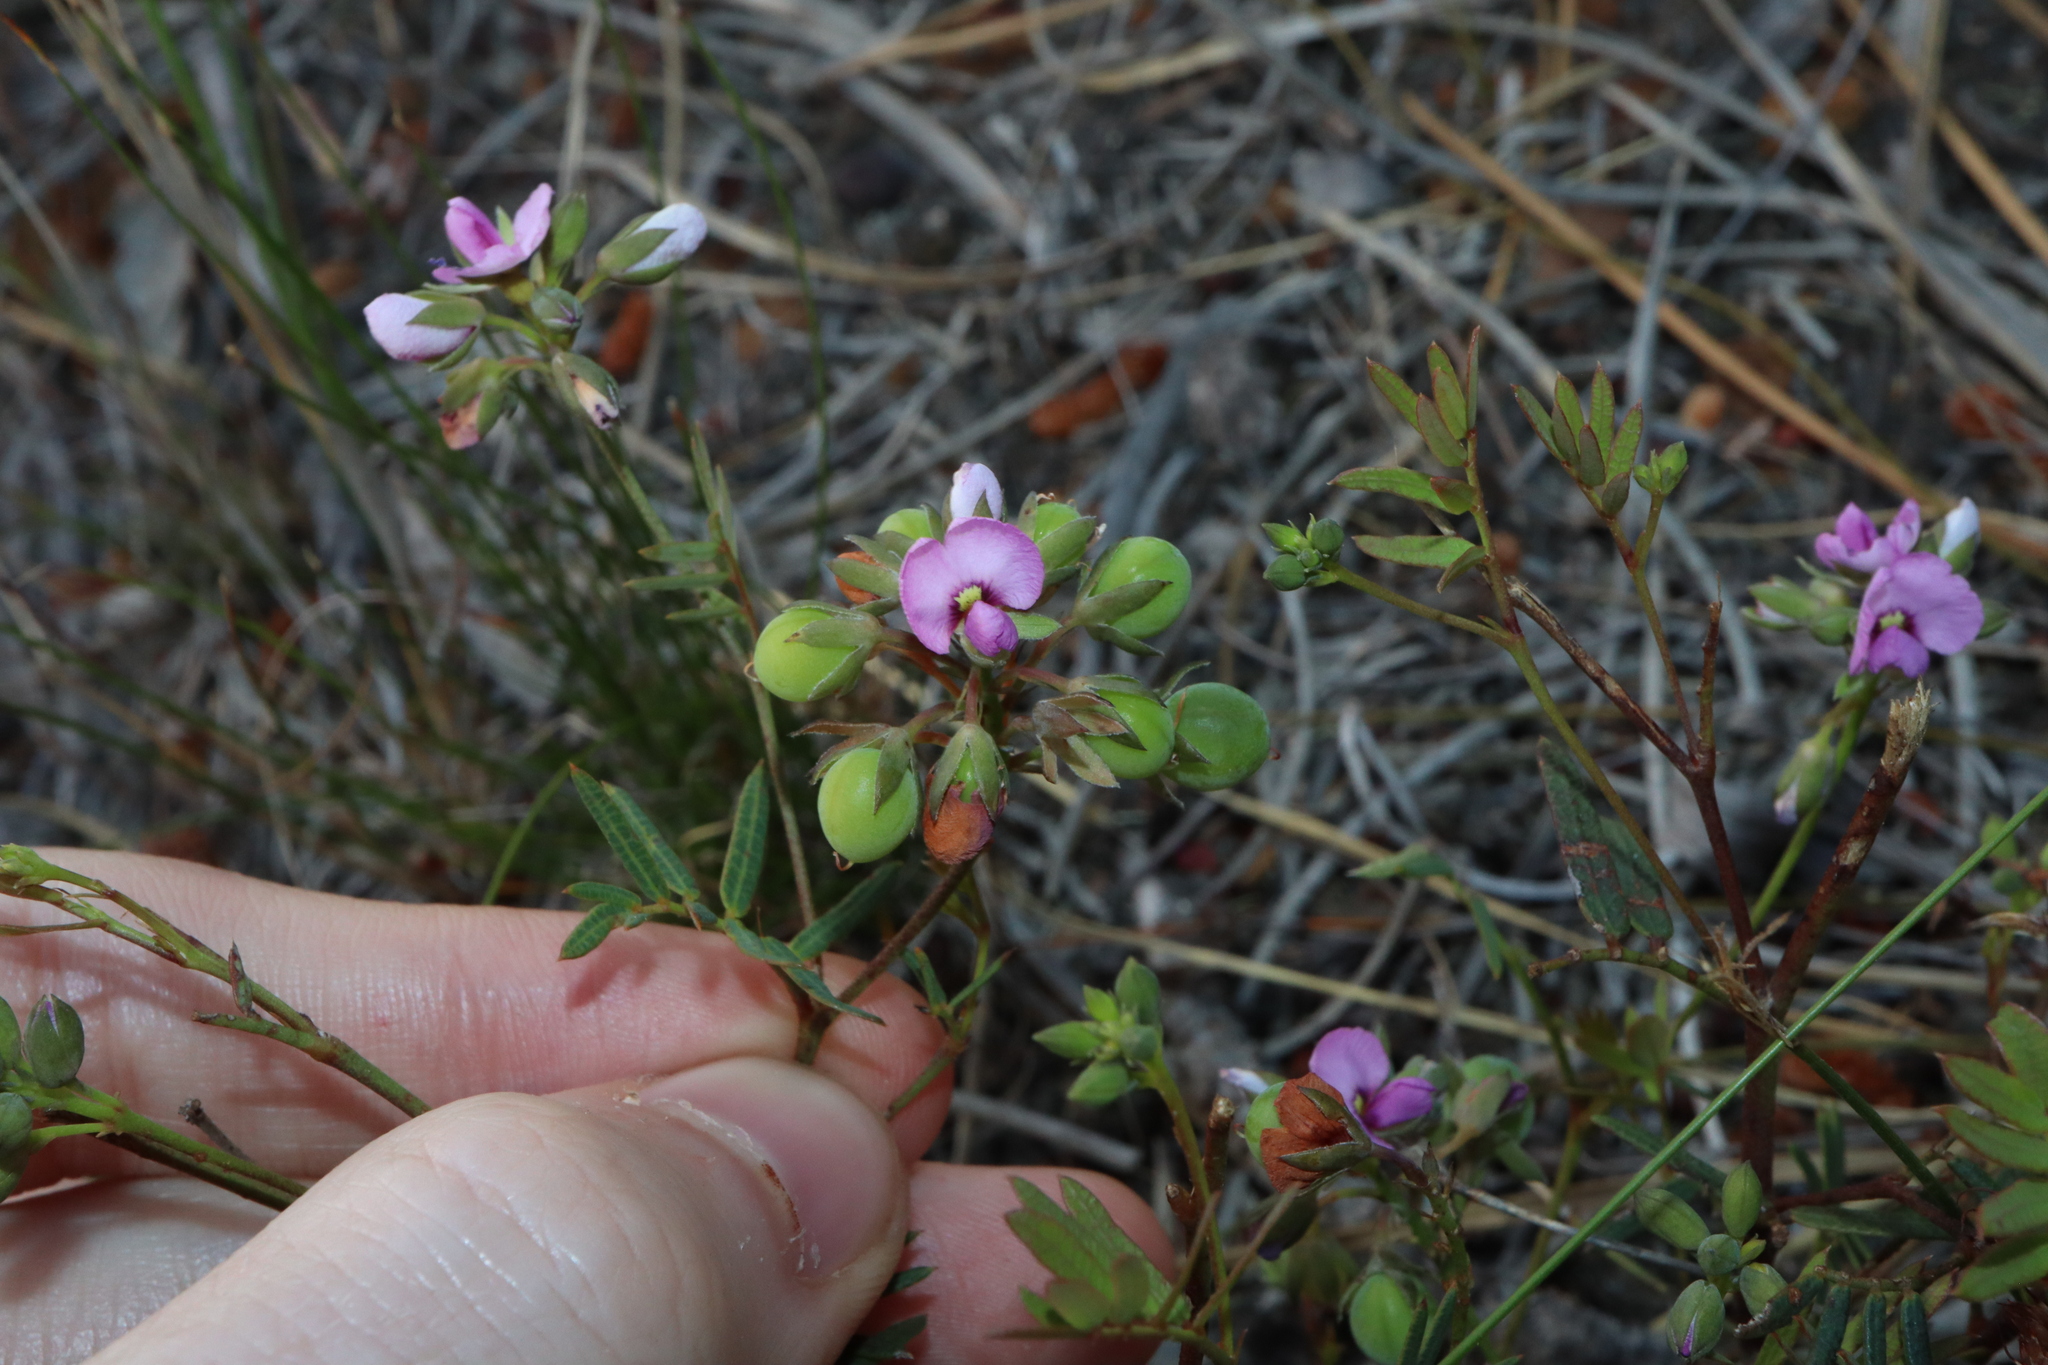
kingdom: Plantae
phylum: Tracheophyta
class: Magnoliopsida
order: Fabales
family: Fabaceae
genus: Gompholobium
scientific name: Gompholobium knightianum
